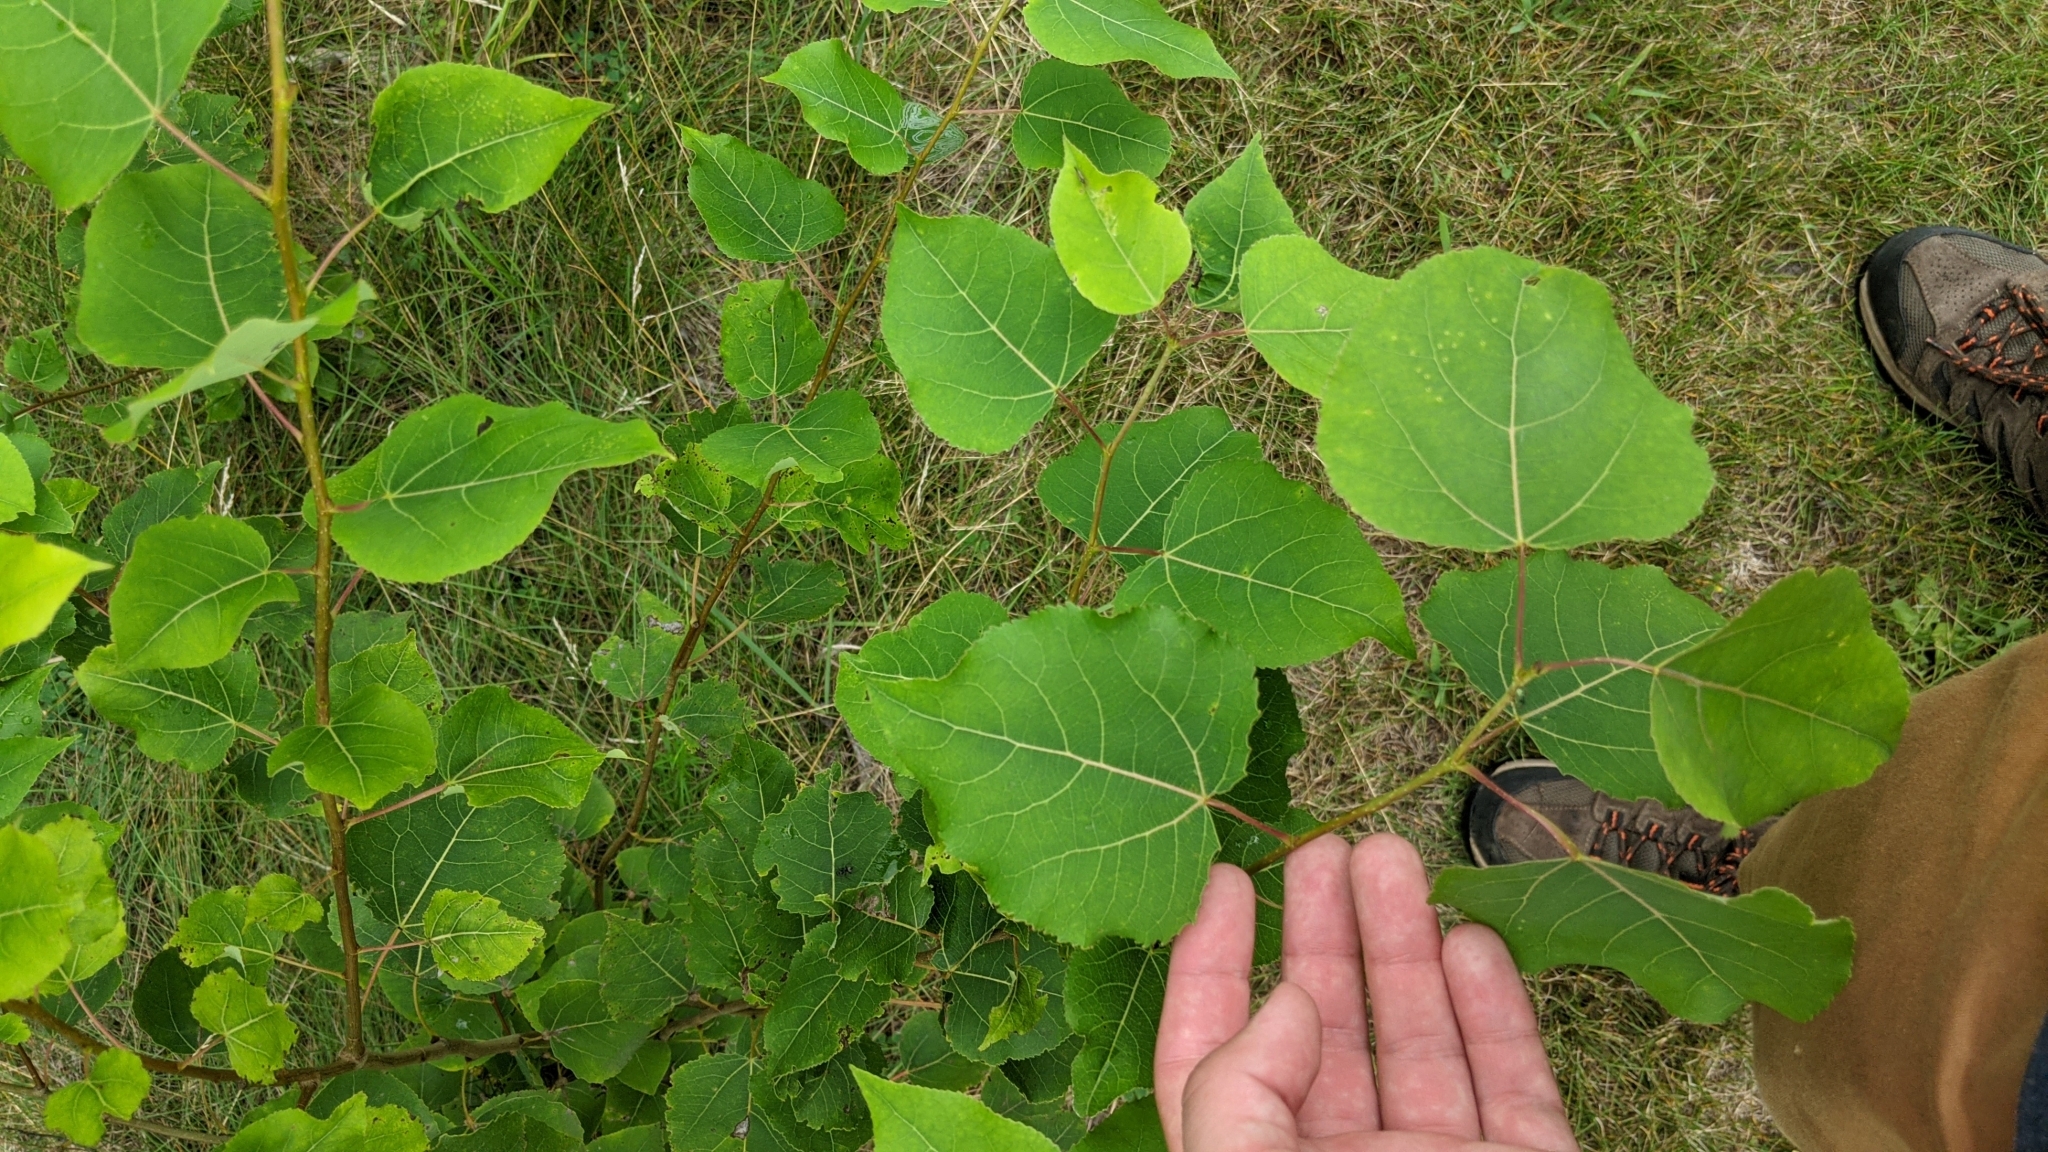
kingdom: Plantae
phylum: Tracheophyta
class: Magnoliopsida
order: Malpighiales
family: Salicaceae
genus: Populus
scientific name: Populus tremuloides
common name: Quaking aspen
